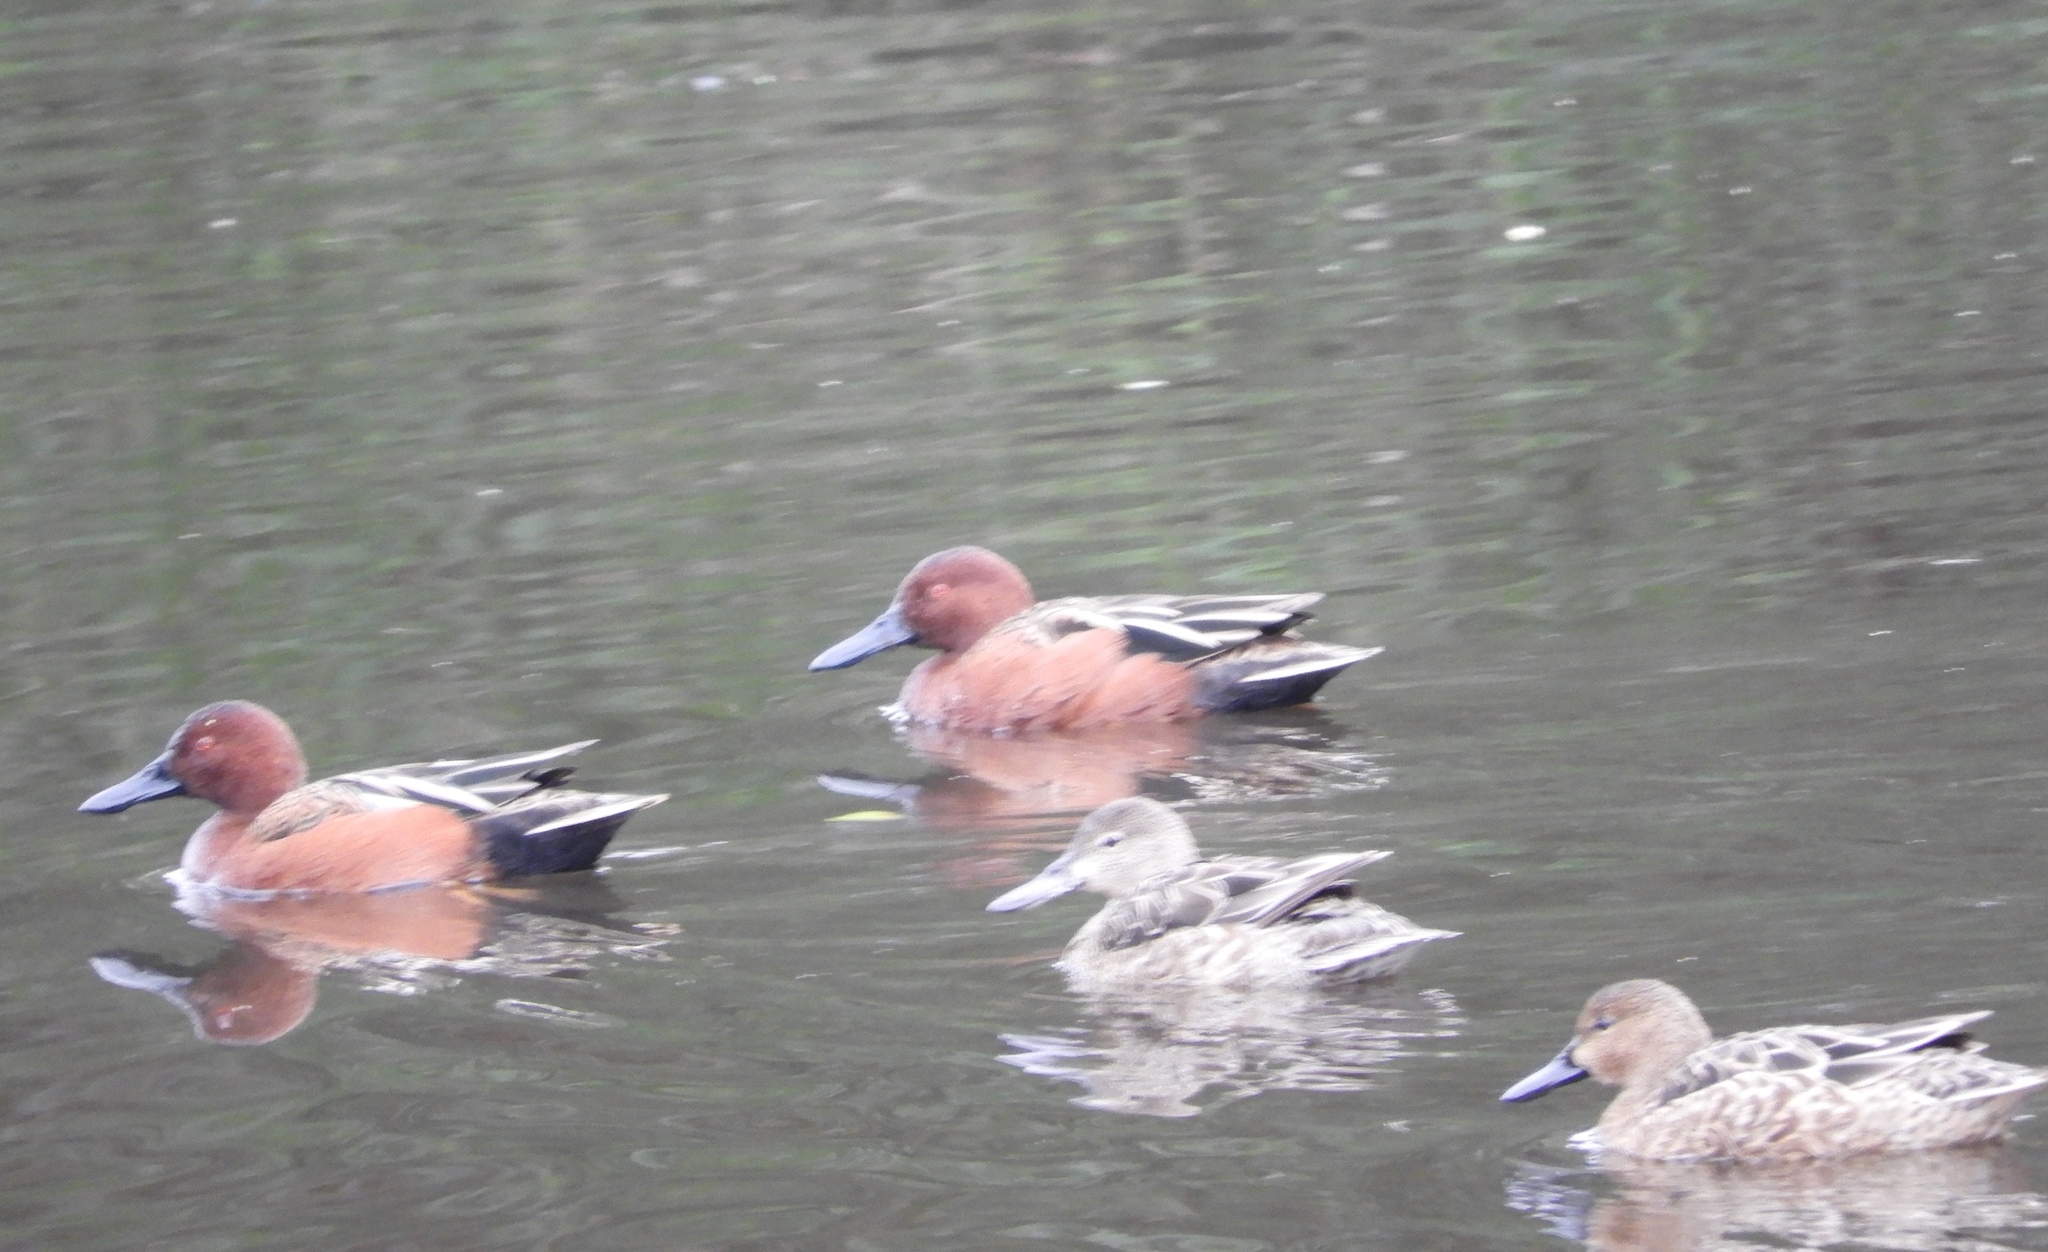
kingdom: Animalia
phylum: Chordata
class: Aves
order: Anseriformes
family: Anatidae
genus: Spatula
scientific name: Spatula cyanoptera
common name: Cinnamon teal
